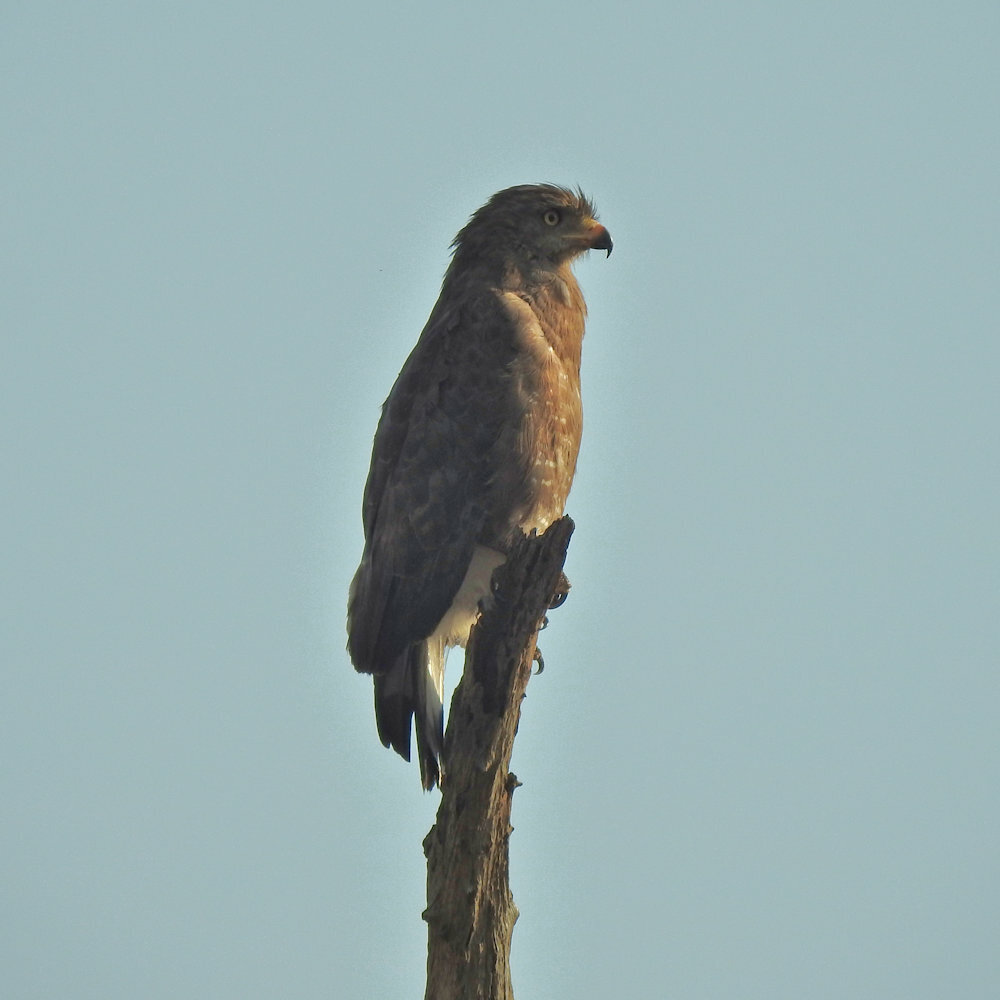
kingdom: Animalia
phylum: Chordata
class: Aves
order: Accipitriformes
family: Accipitridae
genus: Circaetus
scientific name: Circaetus cinerascens
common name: Western banded snake eagle
